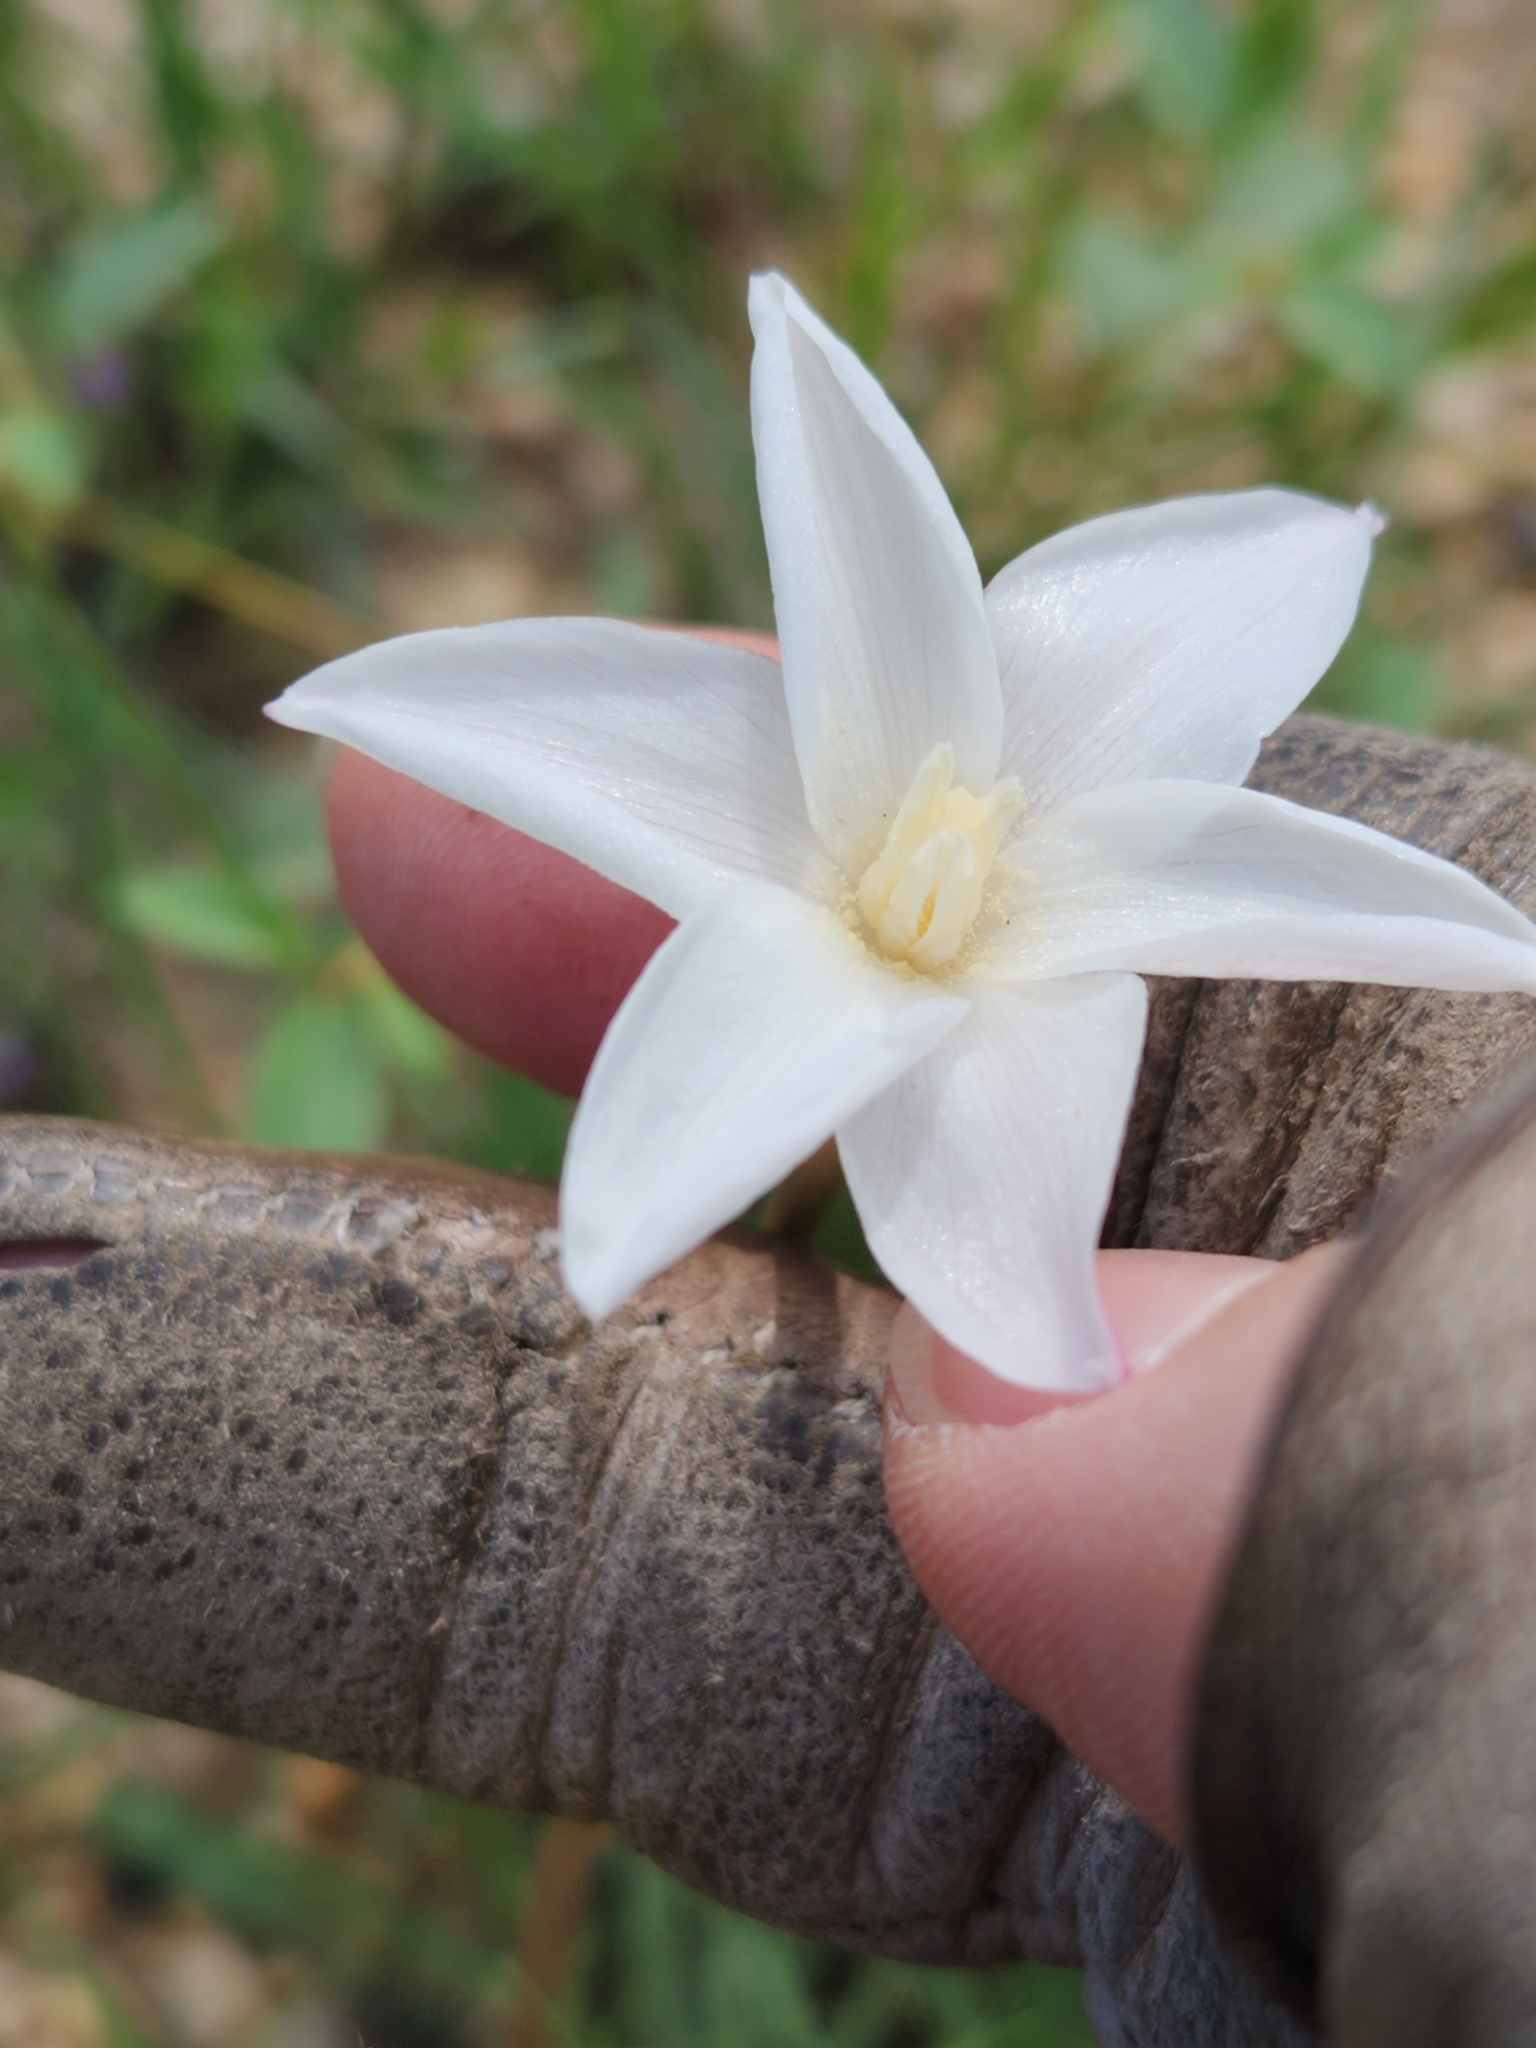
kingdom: Plantae
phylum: Tracheophyta
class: Liliopsida
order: Asparagales
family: Amaryllidaceae
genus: Zephyranthes
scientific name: Zephyranthes chlorosolen
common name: Evening rain-lily
